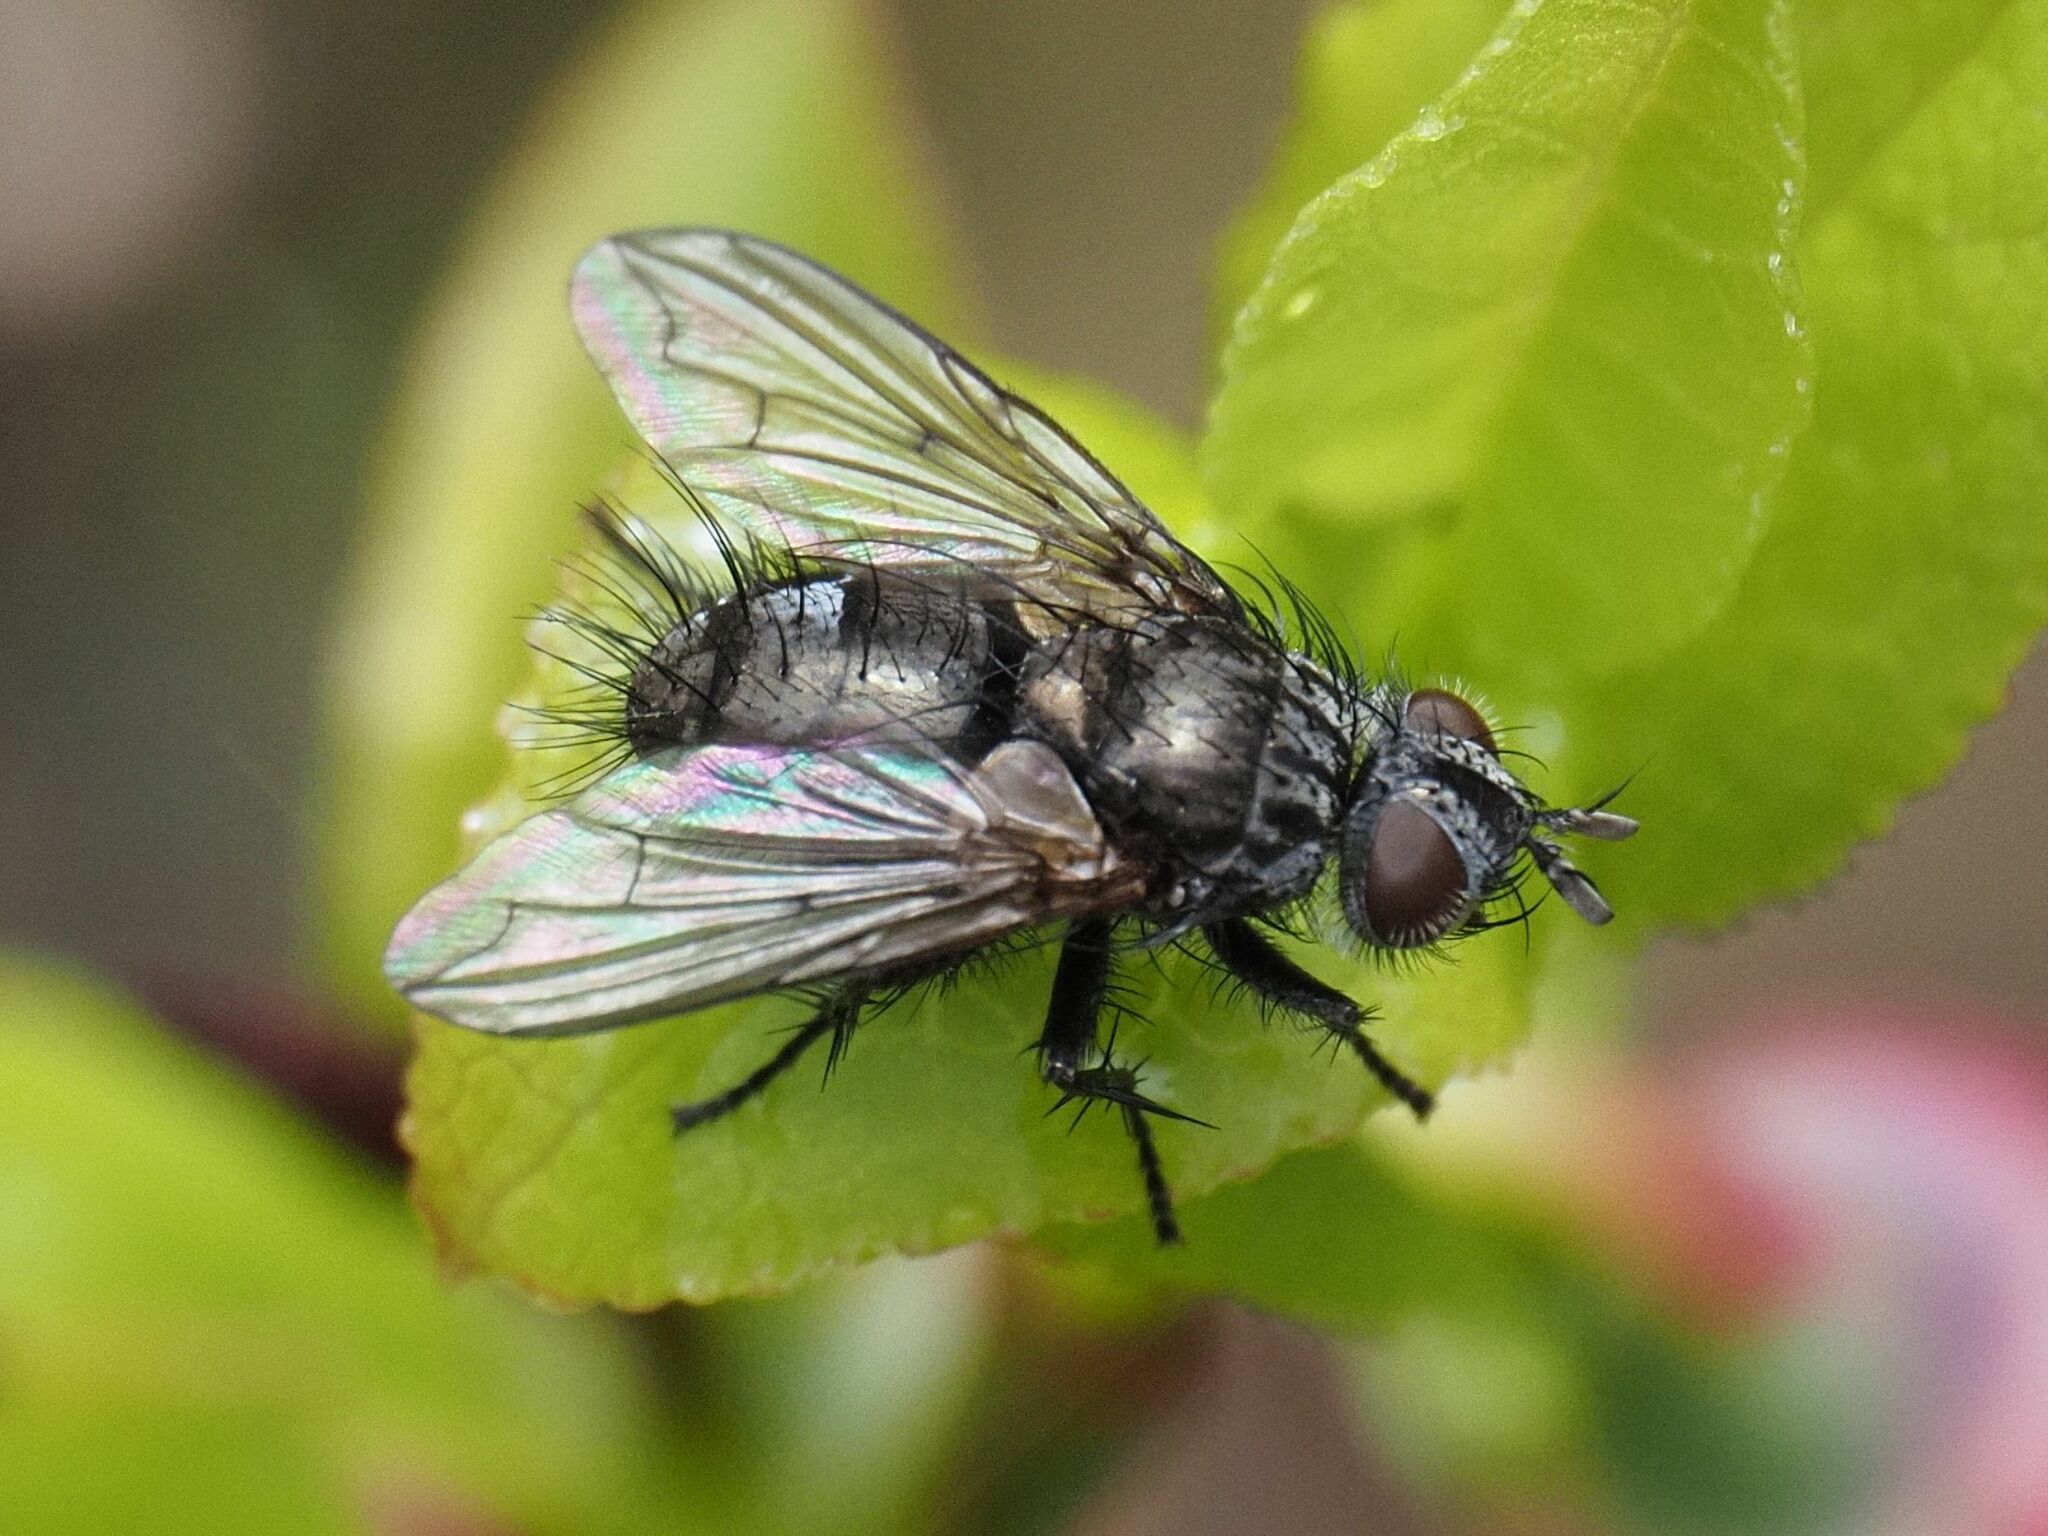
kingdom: Animalia
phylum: Arthropoda
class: Insecta
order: Diptera
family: Tachinidae
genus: Lypha
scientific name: Lypha dubia
